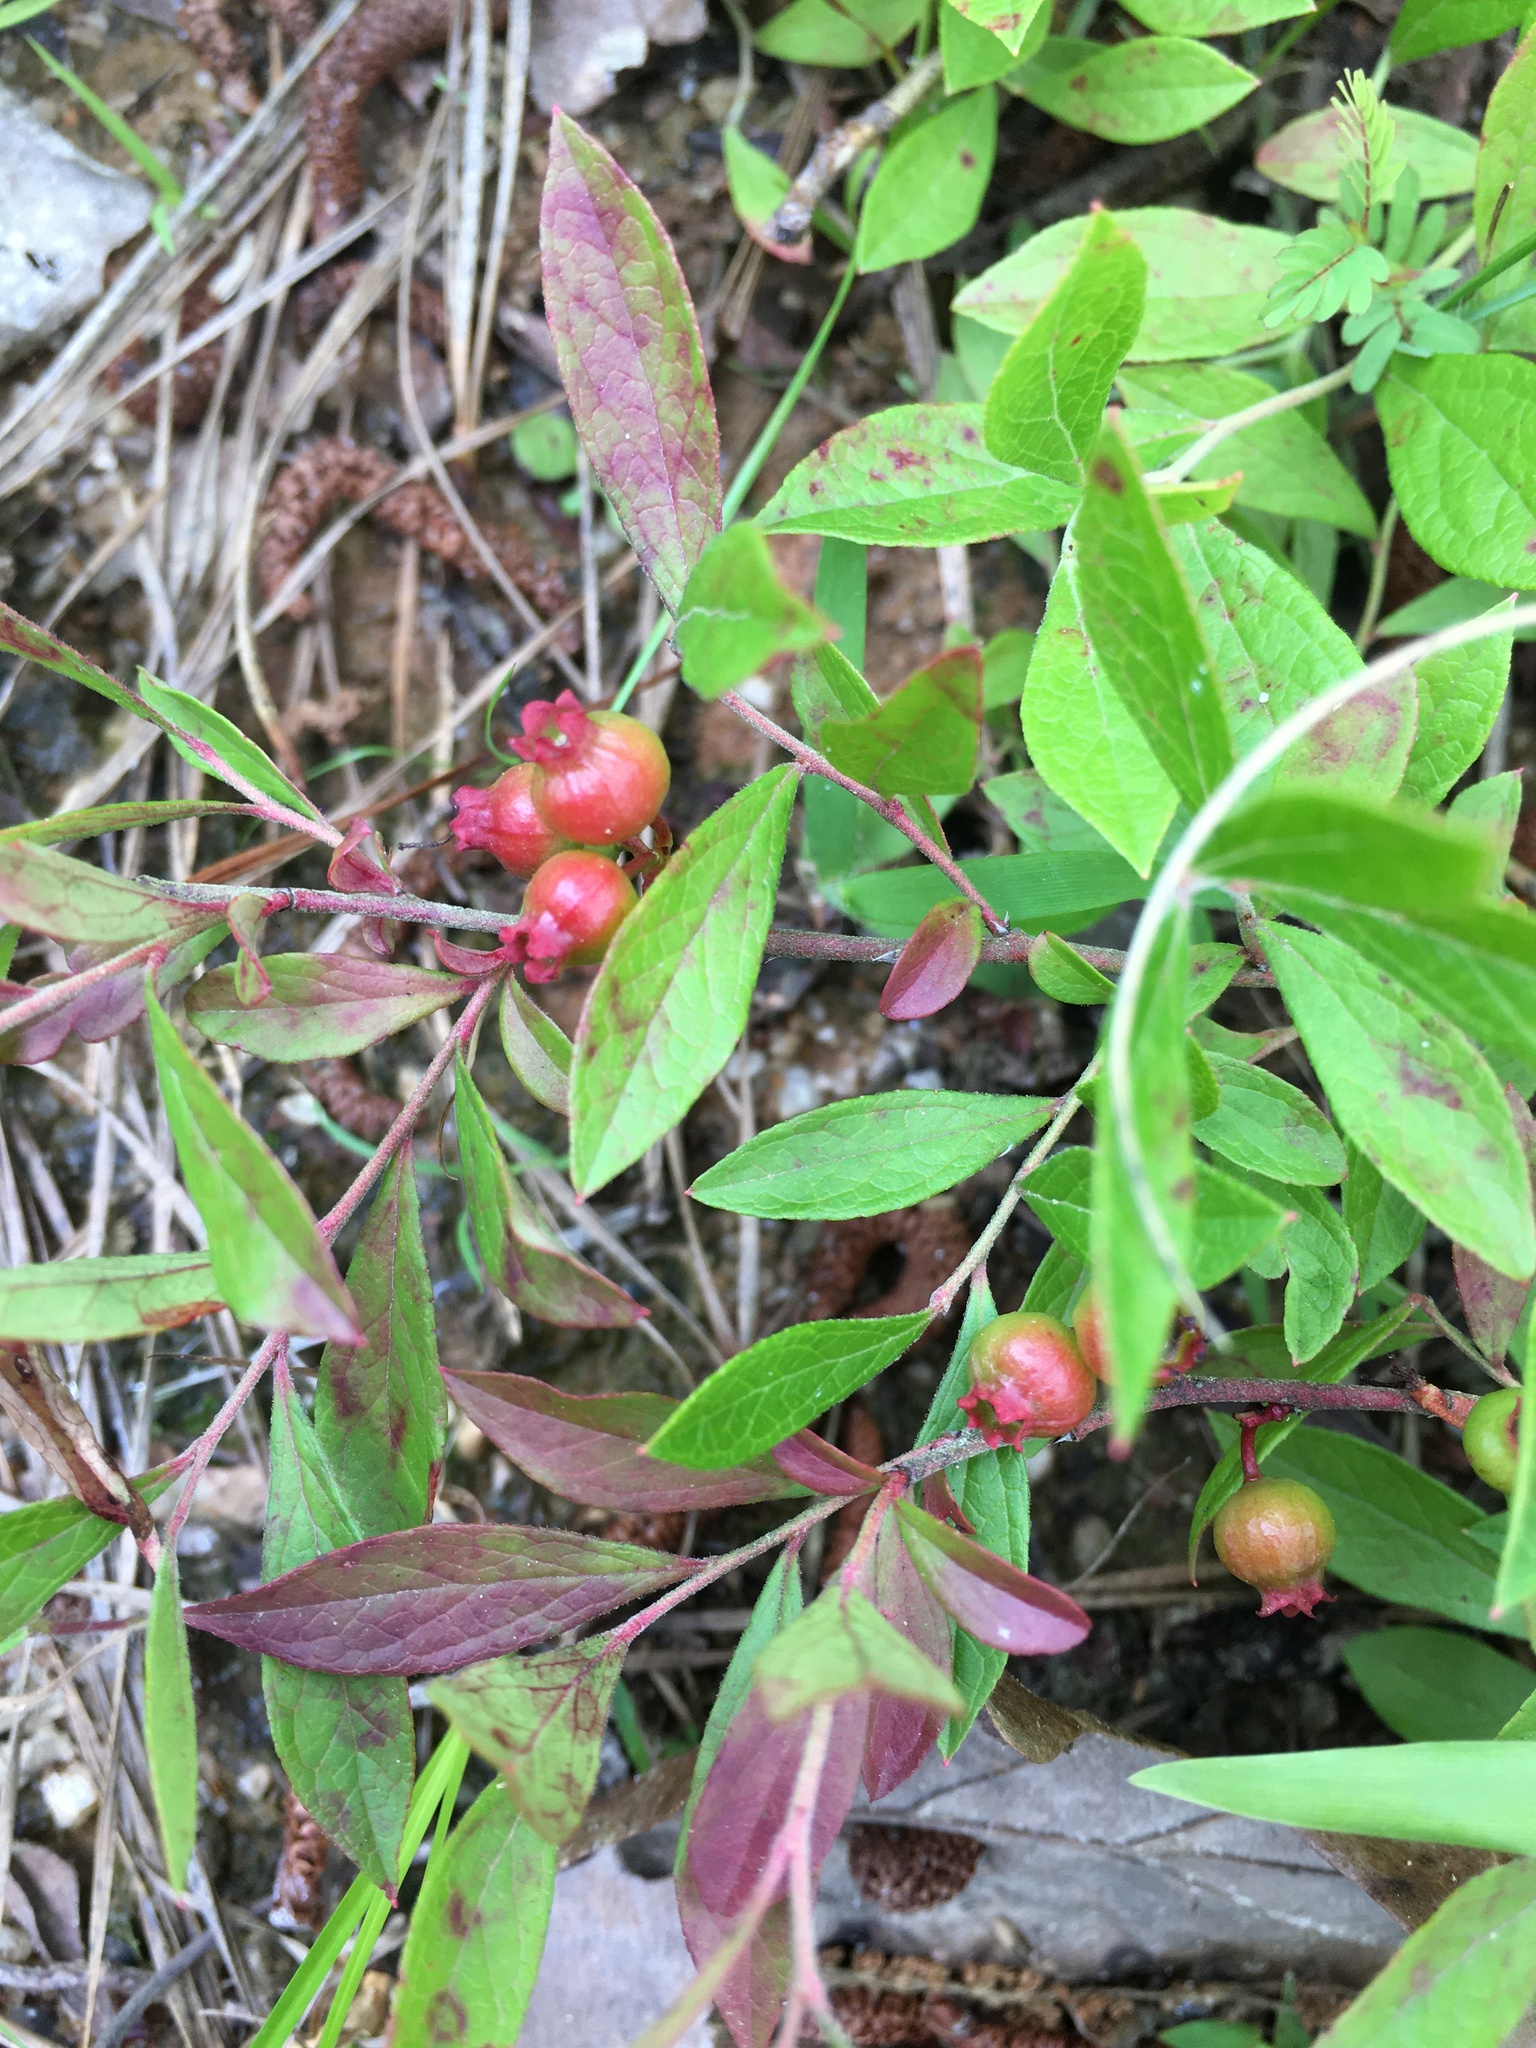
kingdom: Plantae
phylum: Tracheophyta
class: Magnoliopsida
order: Ericales
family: Ericaceae
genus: Vaccinium
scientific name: Vaccinium tenellum
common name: Southern blueberry
